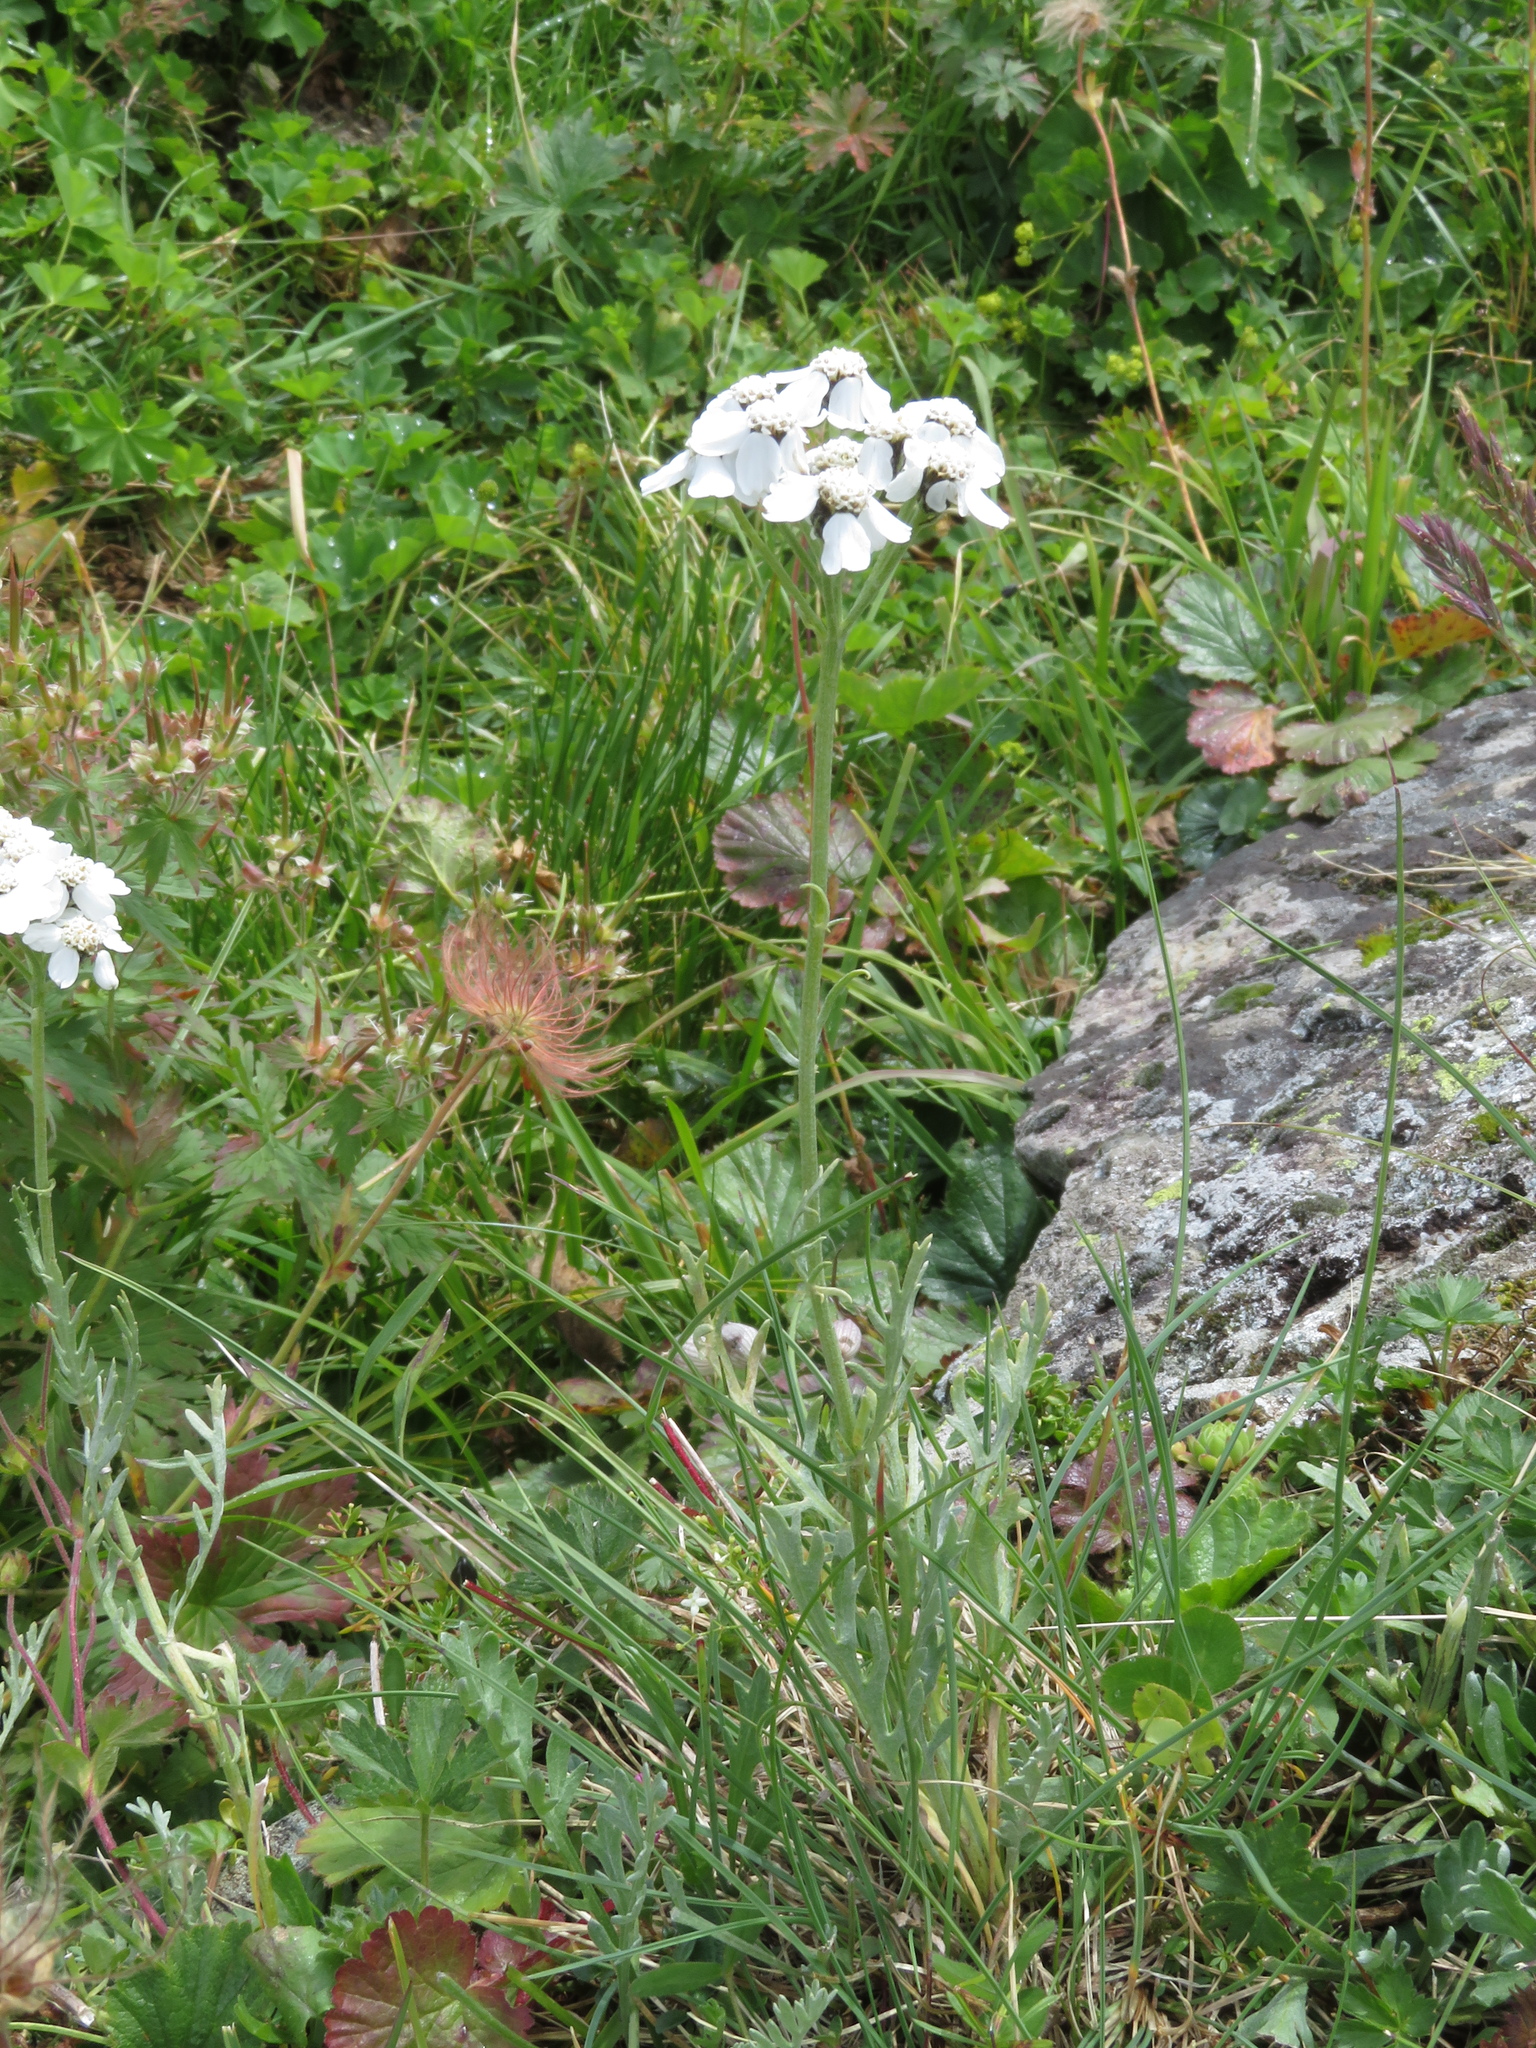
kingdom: Plantae
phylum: Tracheophyta
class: Magnoliopsida
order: Asterales
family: Asteraceae
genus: Achillea
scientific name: Achillea clavennae
